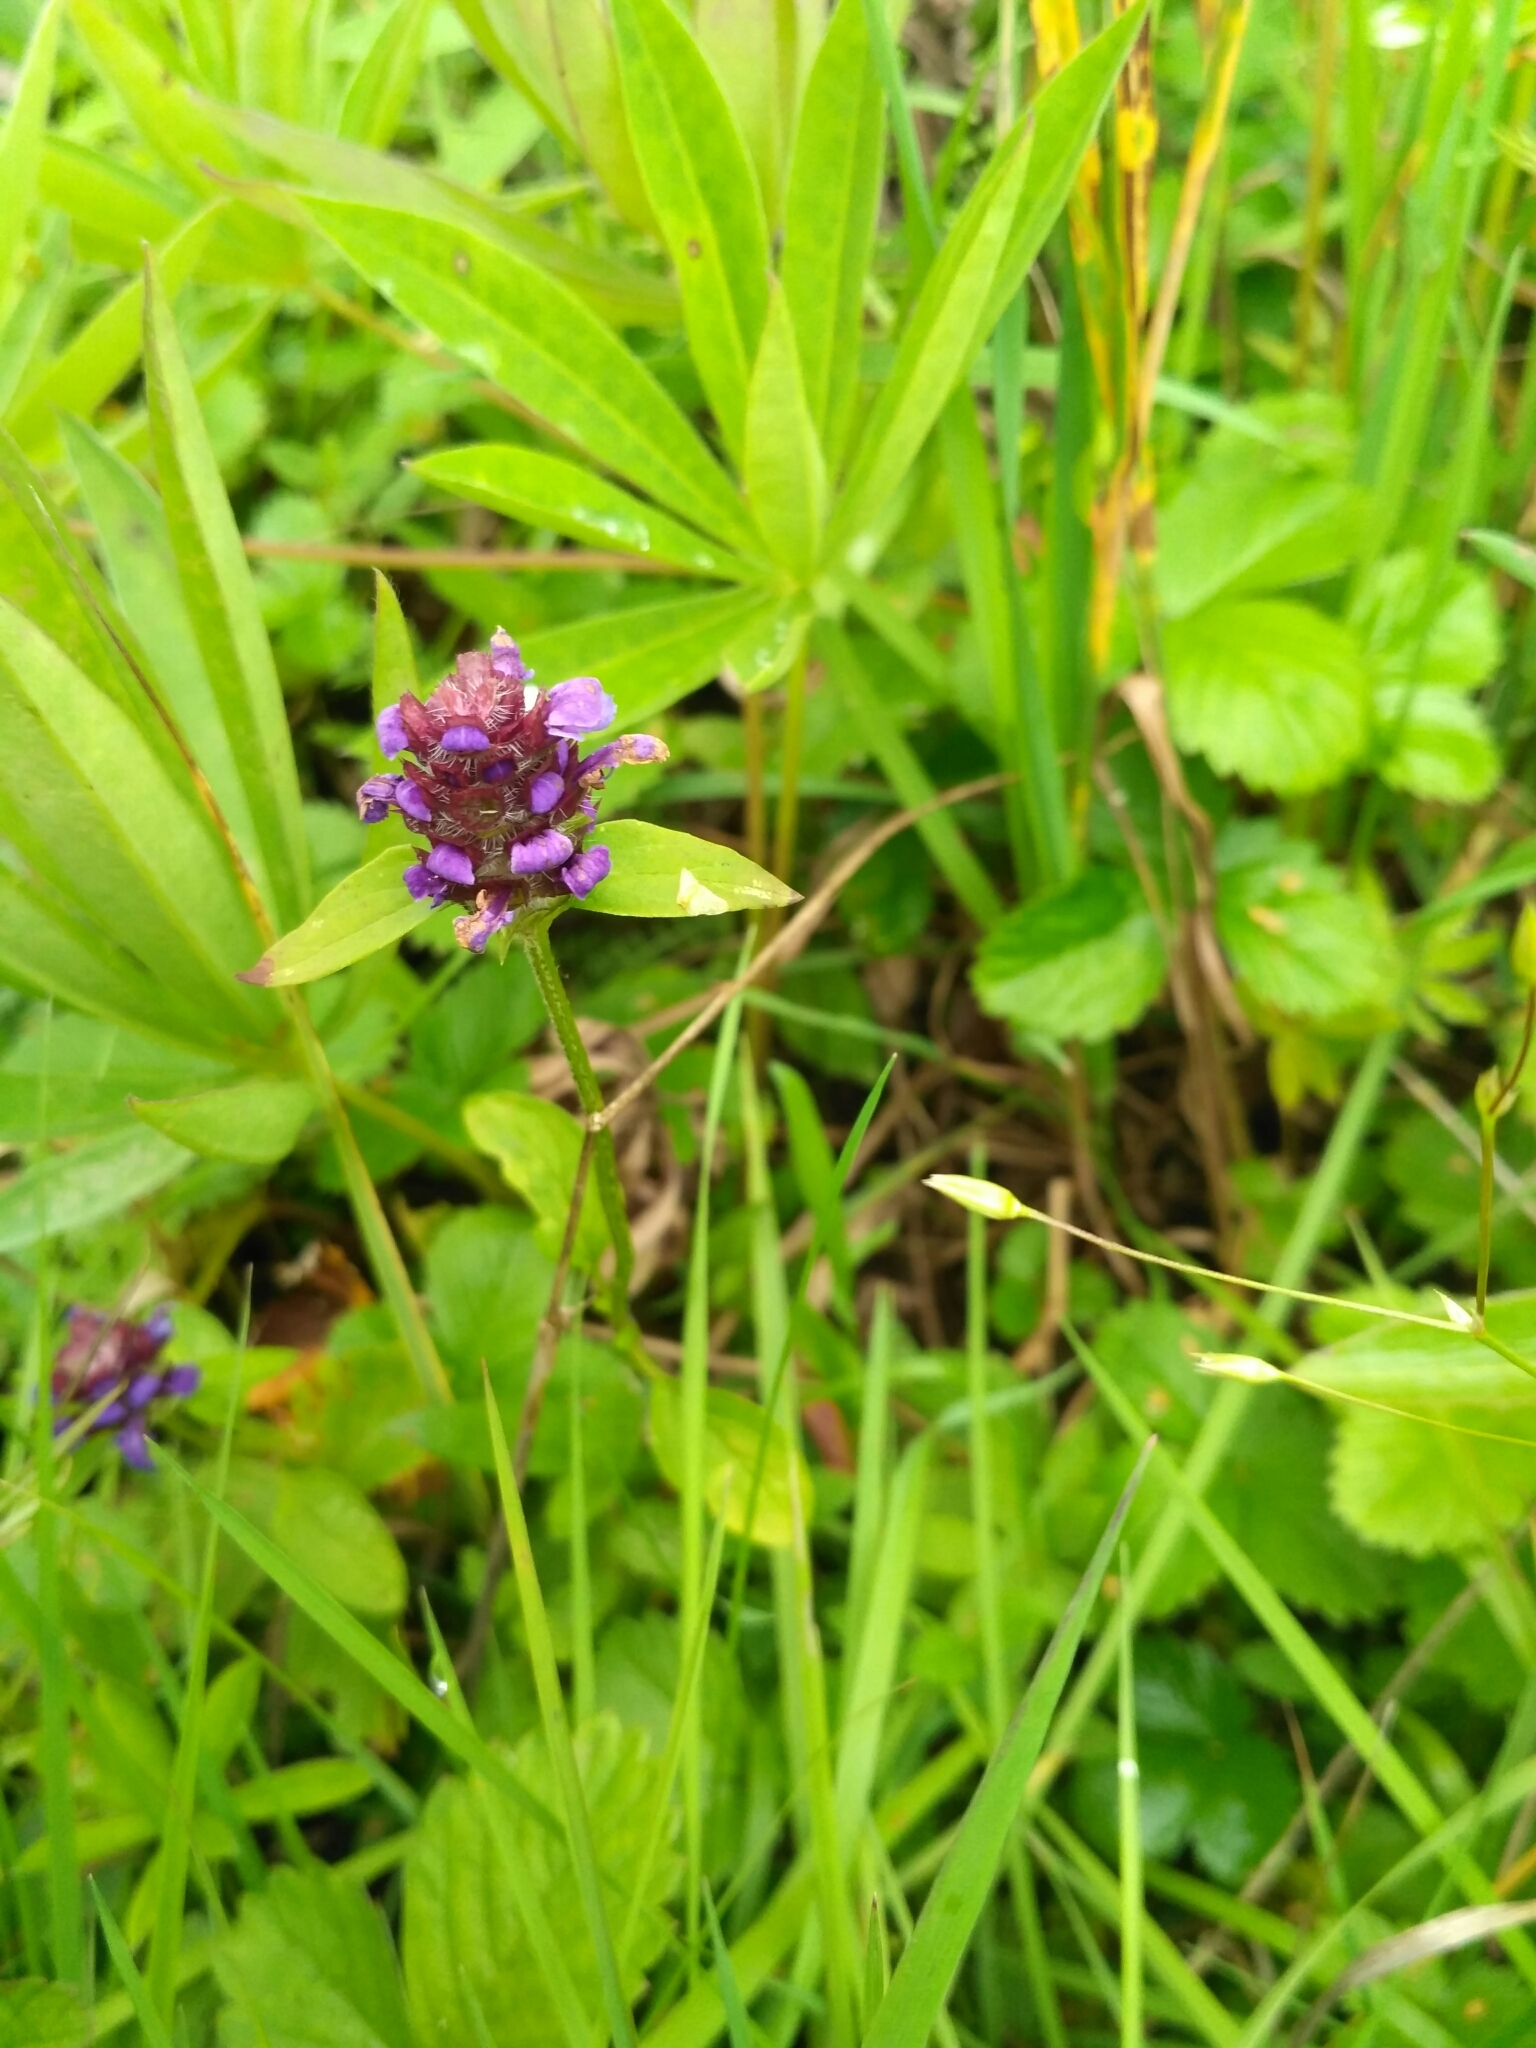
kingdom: Plantae
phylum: Tracheophyta
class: Magnoliopsida
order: Lamiales
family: Lamiaceae
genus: Prunella
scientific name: Prunella vulgaris
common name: Heal-all
